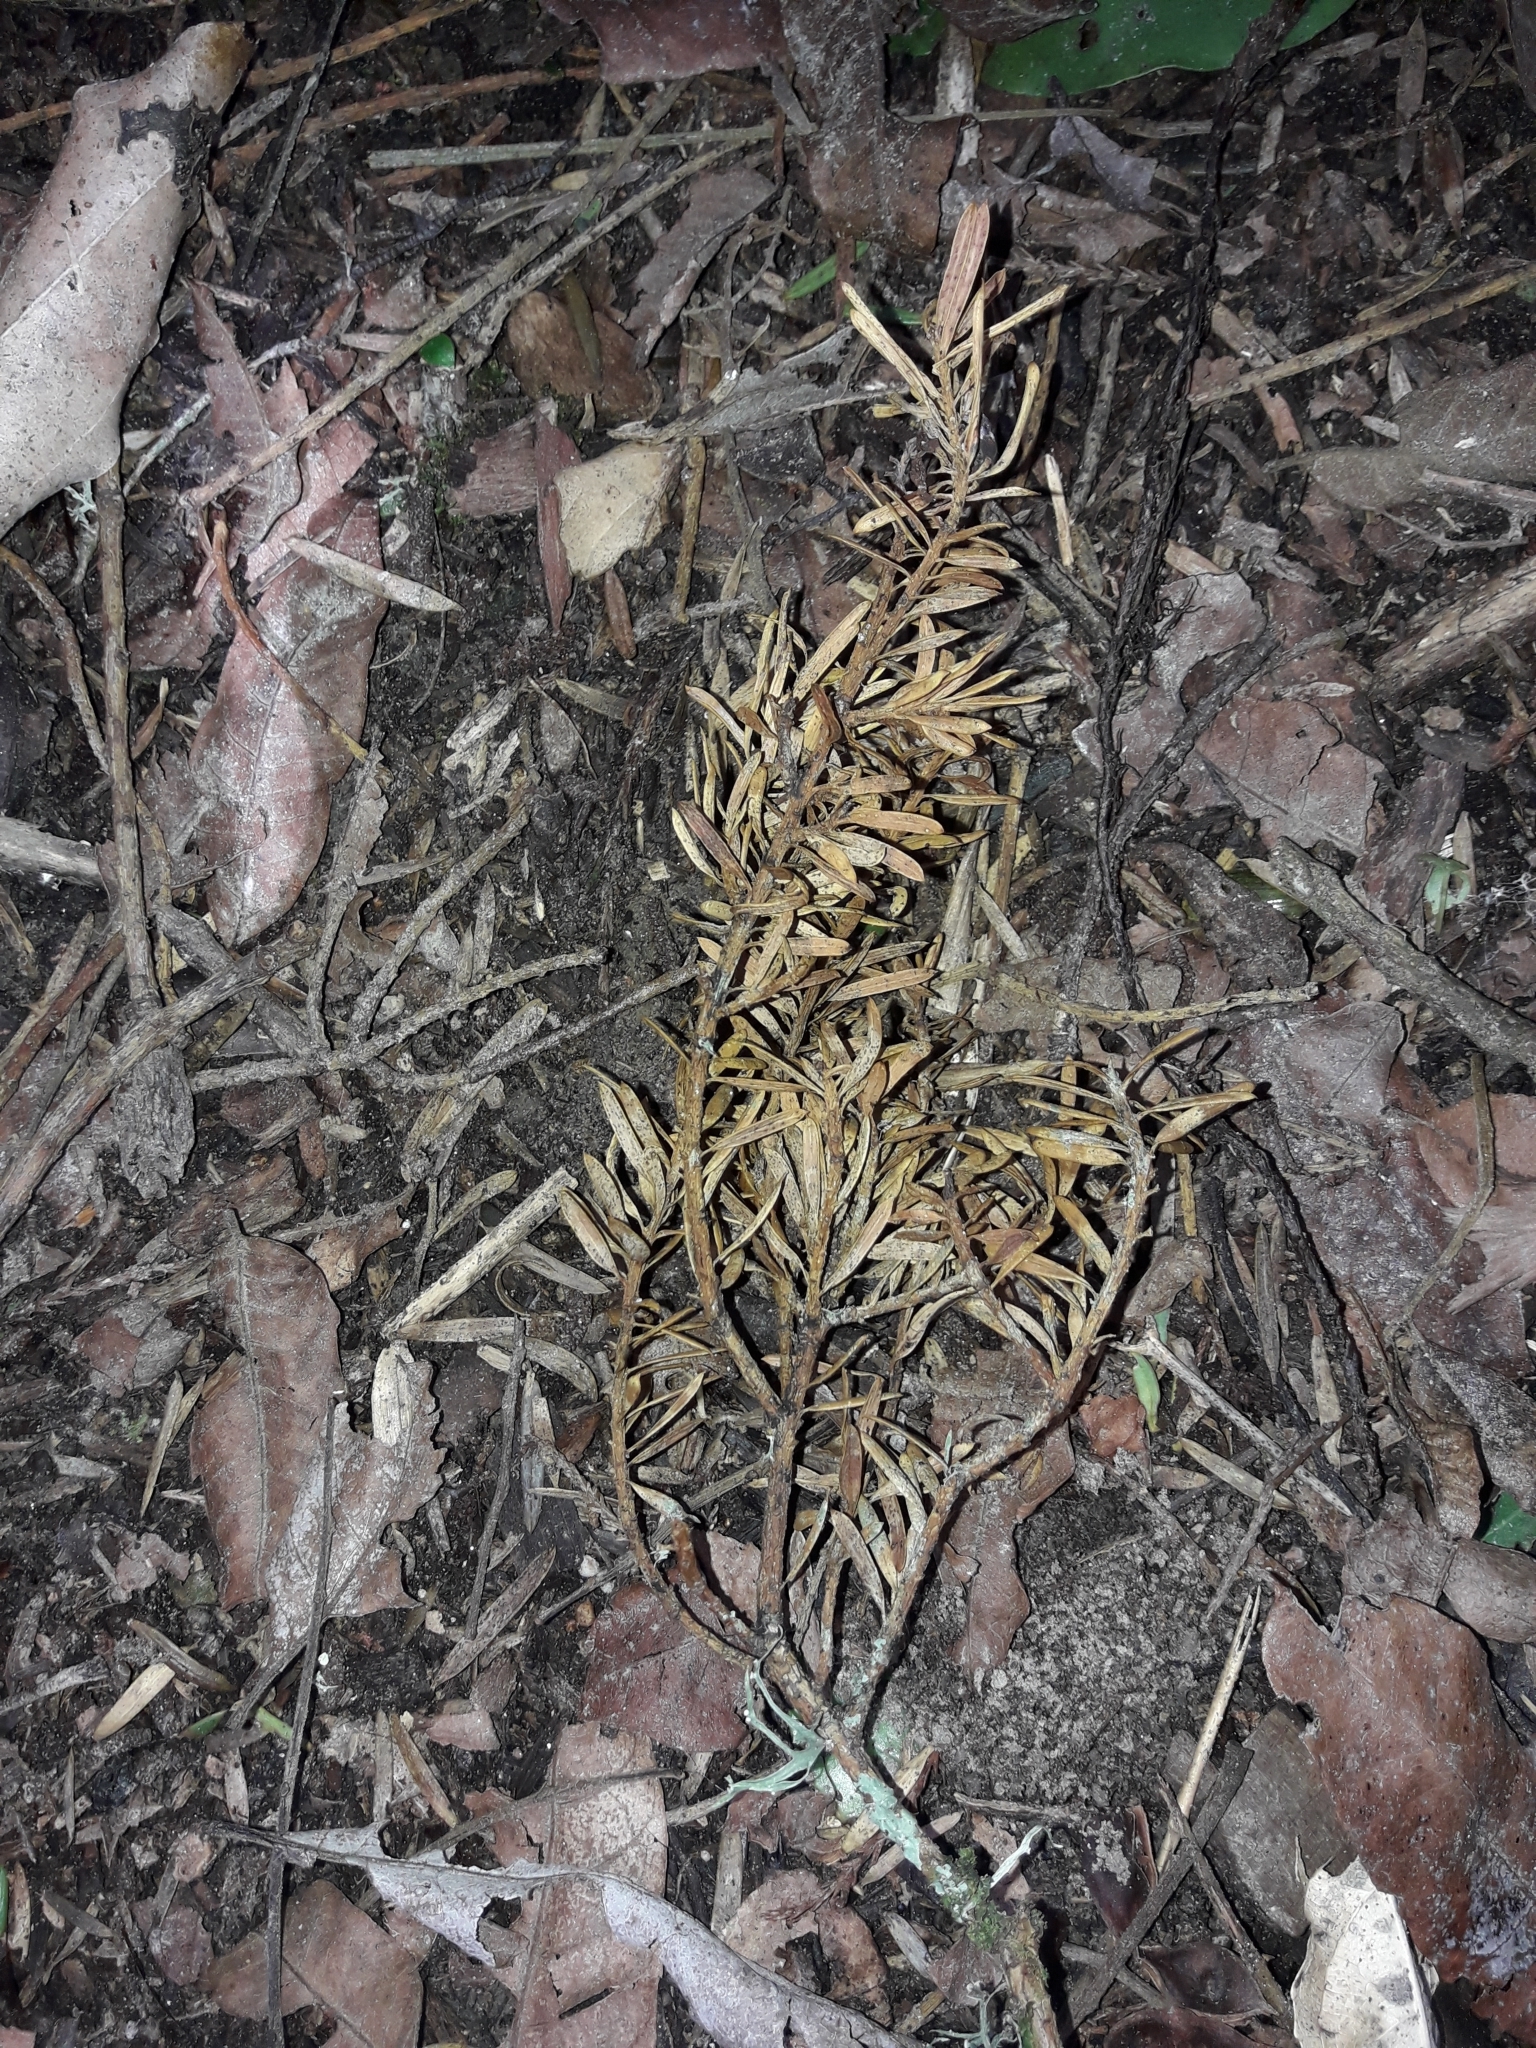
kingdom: Plantae
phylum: Tracheophyta
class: Pinopsida
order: Pinales
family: Podocarpaceae
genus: Podocarpus
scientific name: Podocarpus totara
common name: Totara
